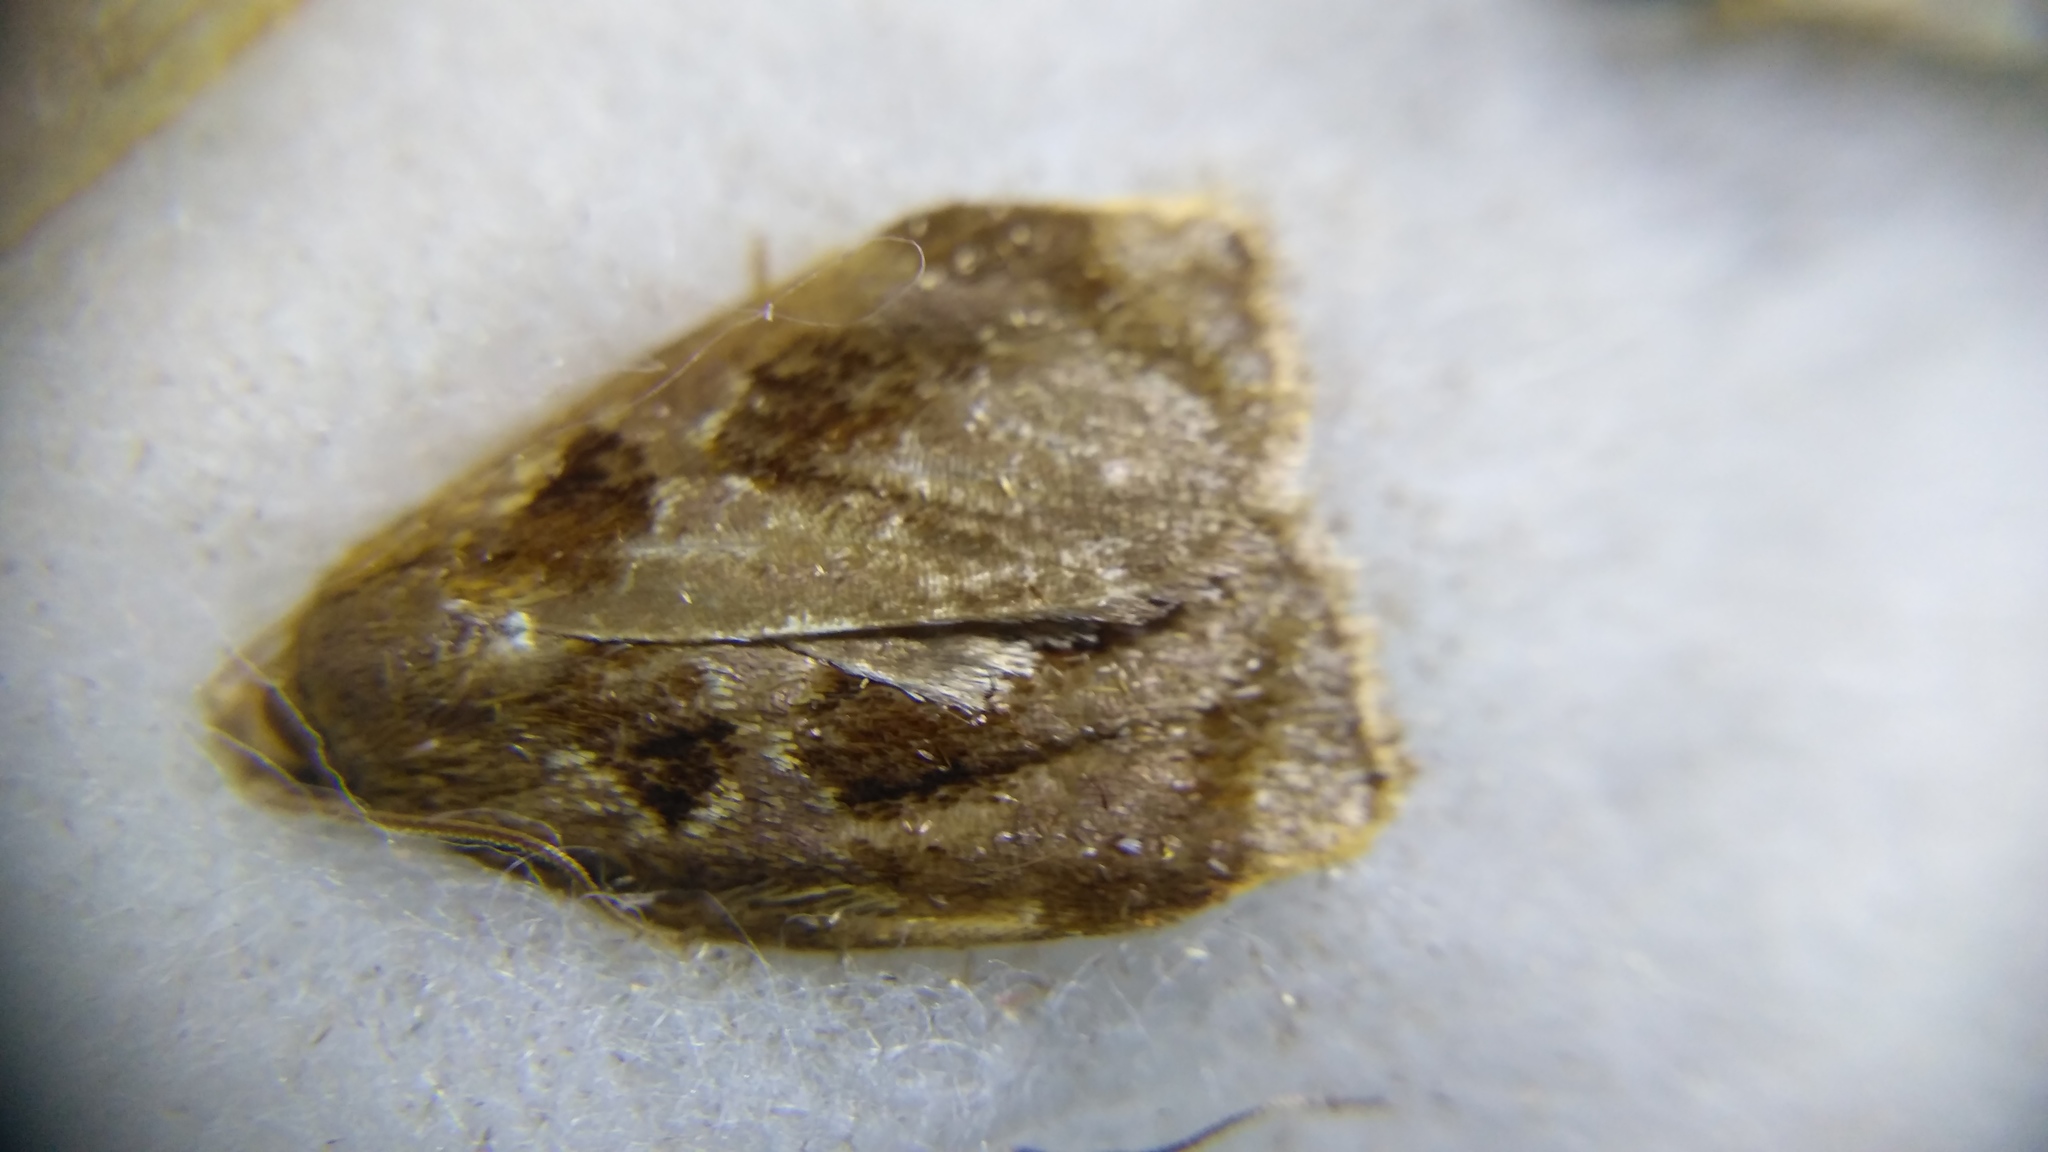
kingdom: Animalia
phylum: Arthropoda
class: Insecta
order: Lepidoptera
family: Tortricidae
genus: Archips
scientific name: Archips crataegana
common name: Brown oak tortrix
